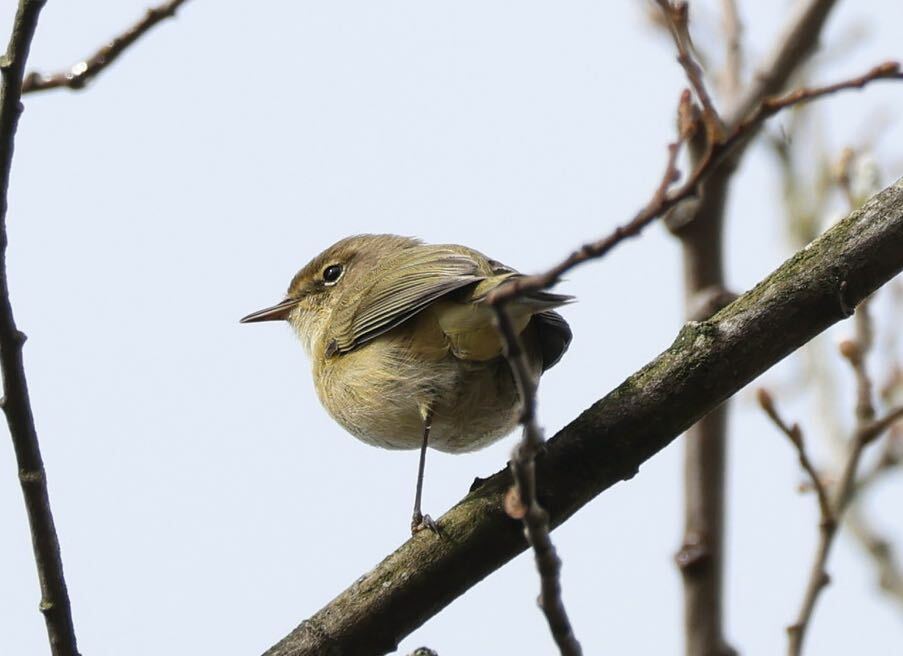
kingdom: Animalia
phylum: Chordata
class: Aves
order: Passeriformes
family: Phylloscopidae
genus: Phylloscopus
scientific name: Phylloscopus collybita
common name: Common chiffchaff
